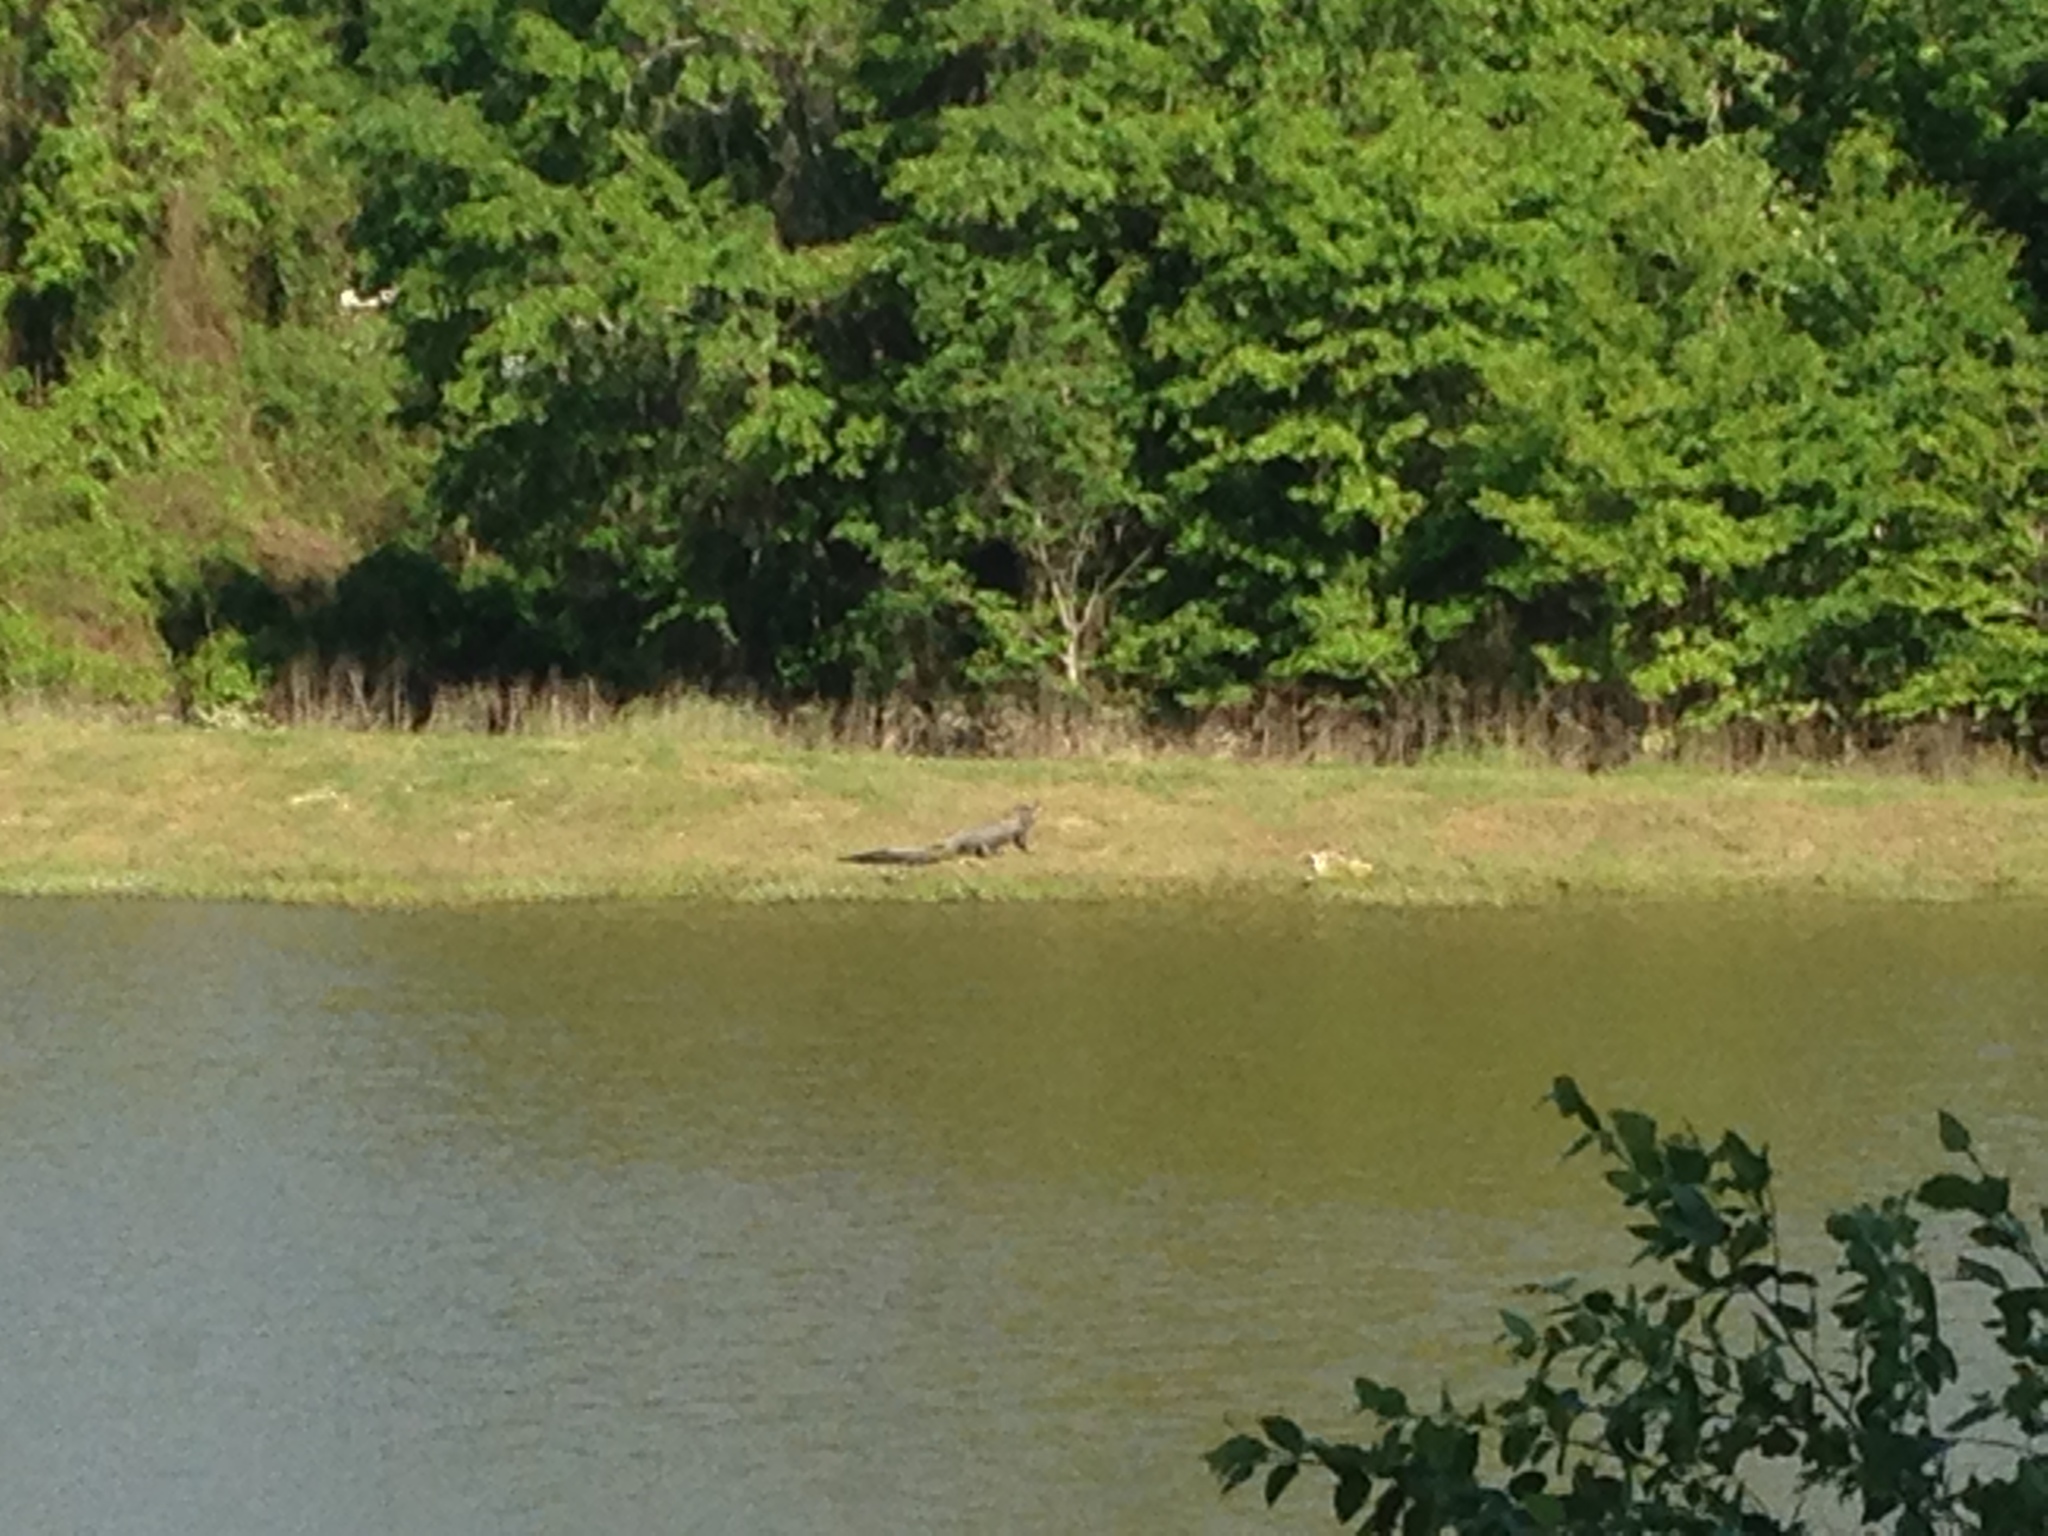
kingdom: Animalia
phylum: Chordata
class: Crocodylia
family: Alligatoridae
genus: Alligator
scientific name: Alligator mississippiensis
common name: American alligator
